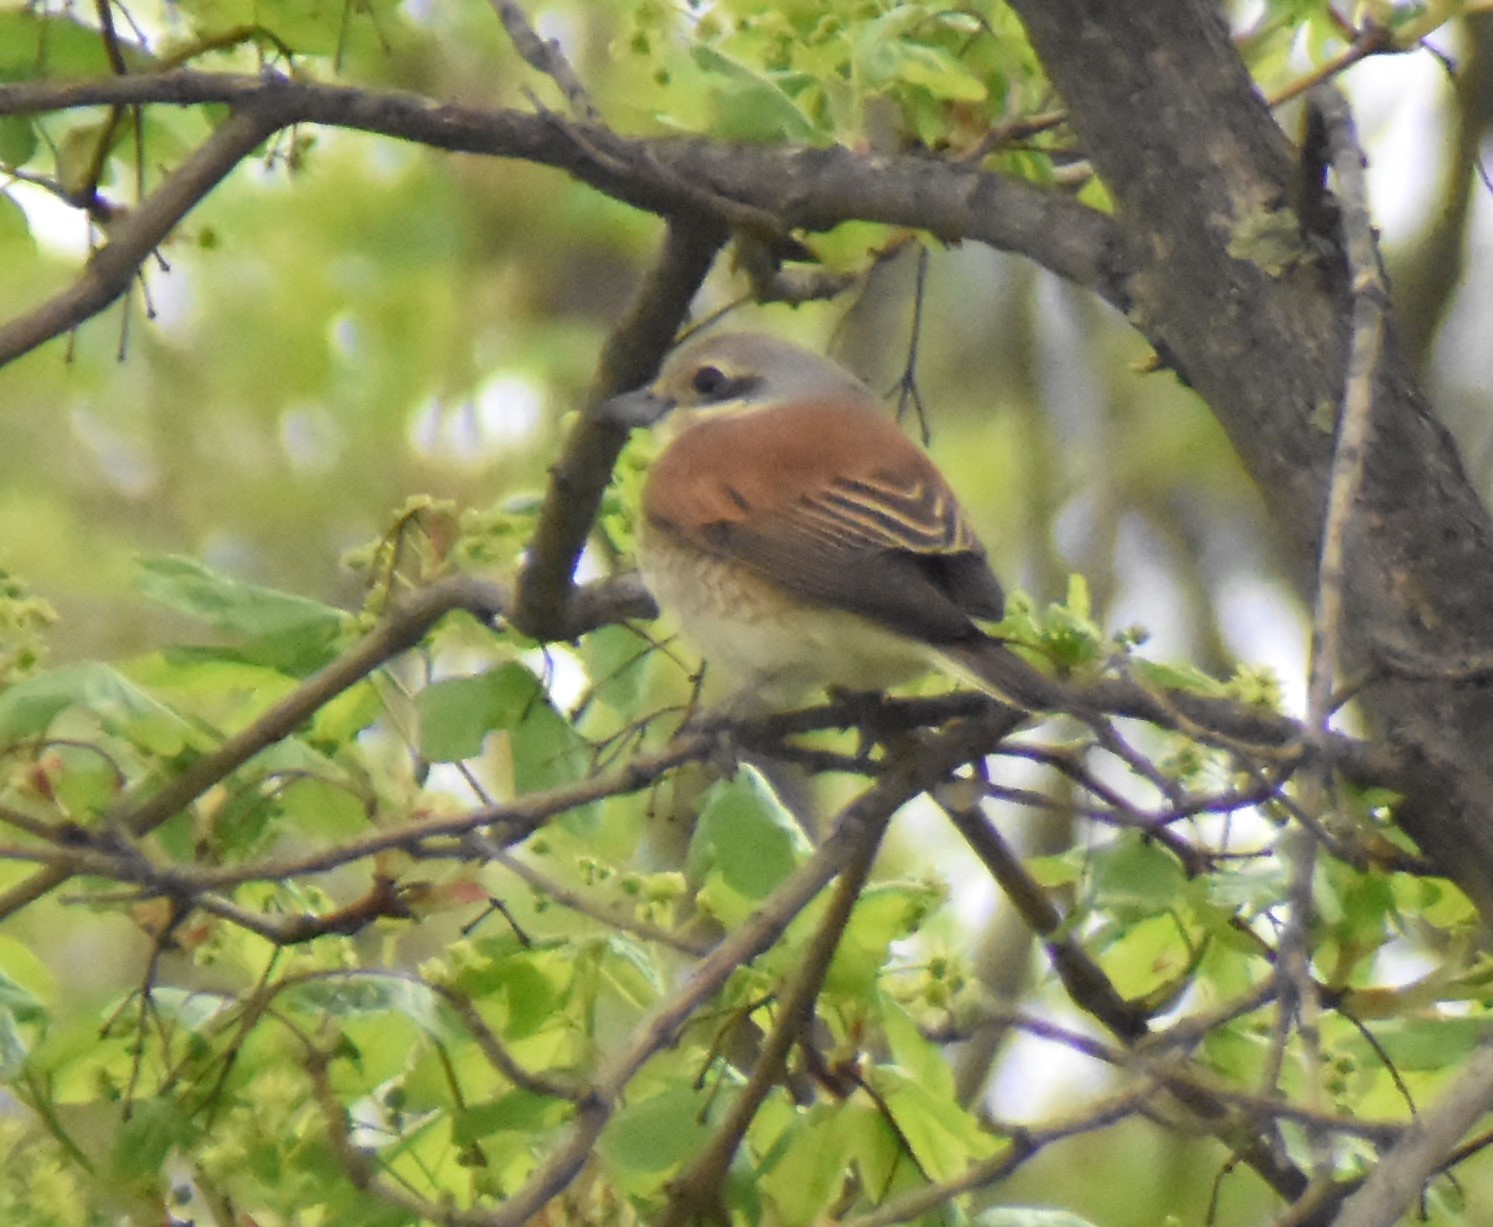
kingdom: Animalia
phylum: Chordata
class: Aves
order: Passeriformes
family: Laniidae
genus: Lanius
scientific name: Lanius collurio
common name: Red-backed shrike
